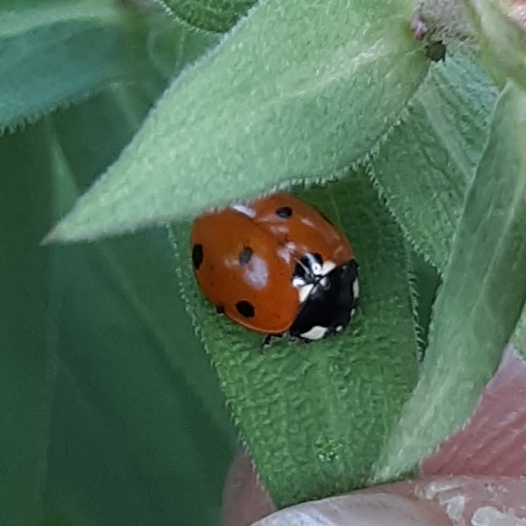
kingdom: Animalia
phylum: Arthropoda
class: Insecta
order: Coleoptera
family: Coccinellidae
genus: Coccinella
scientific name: Coccinella septempunctata
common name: Sevenspotted lady beetle
